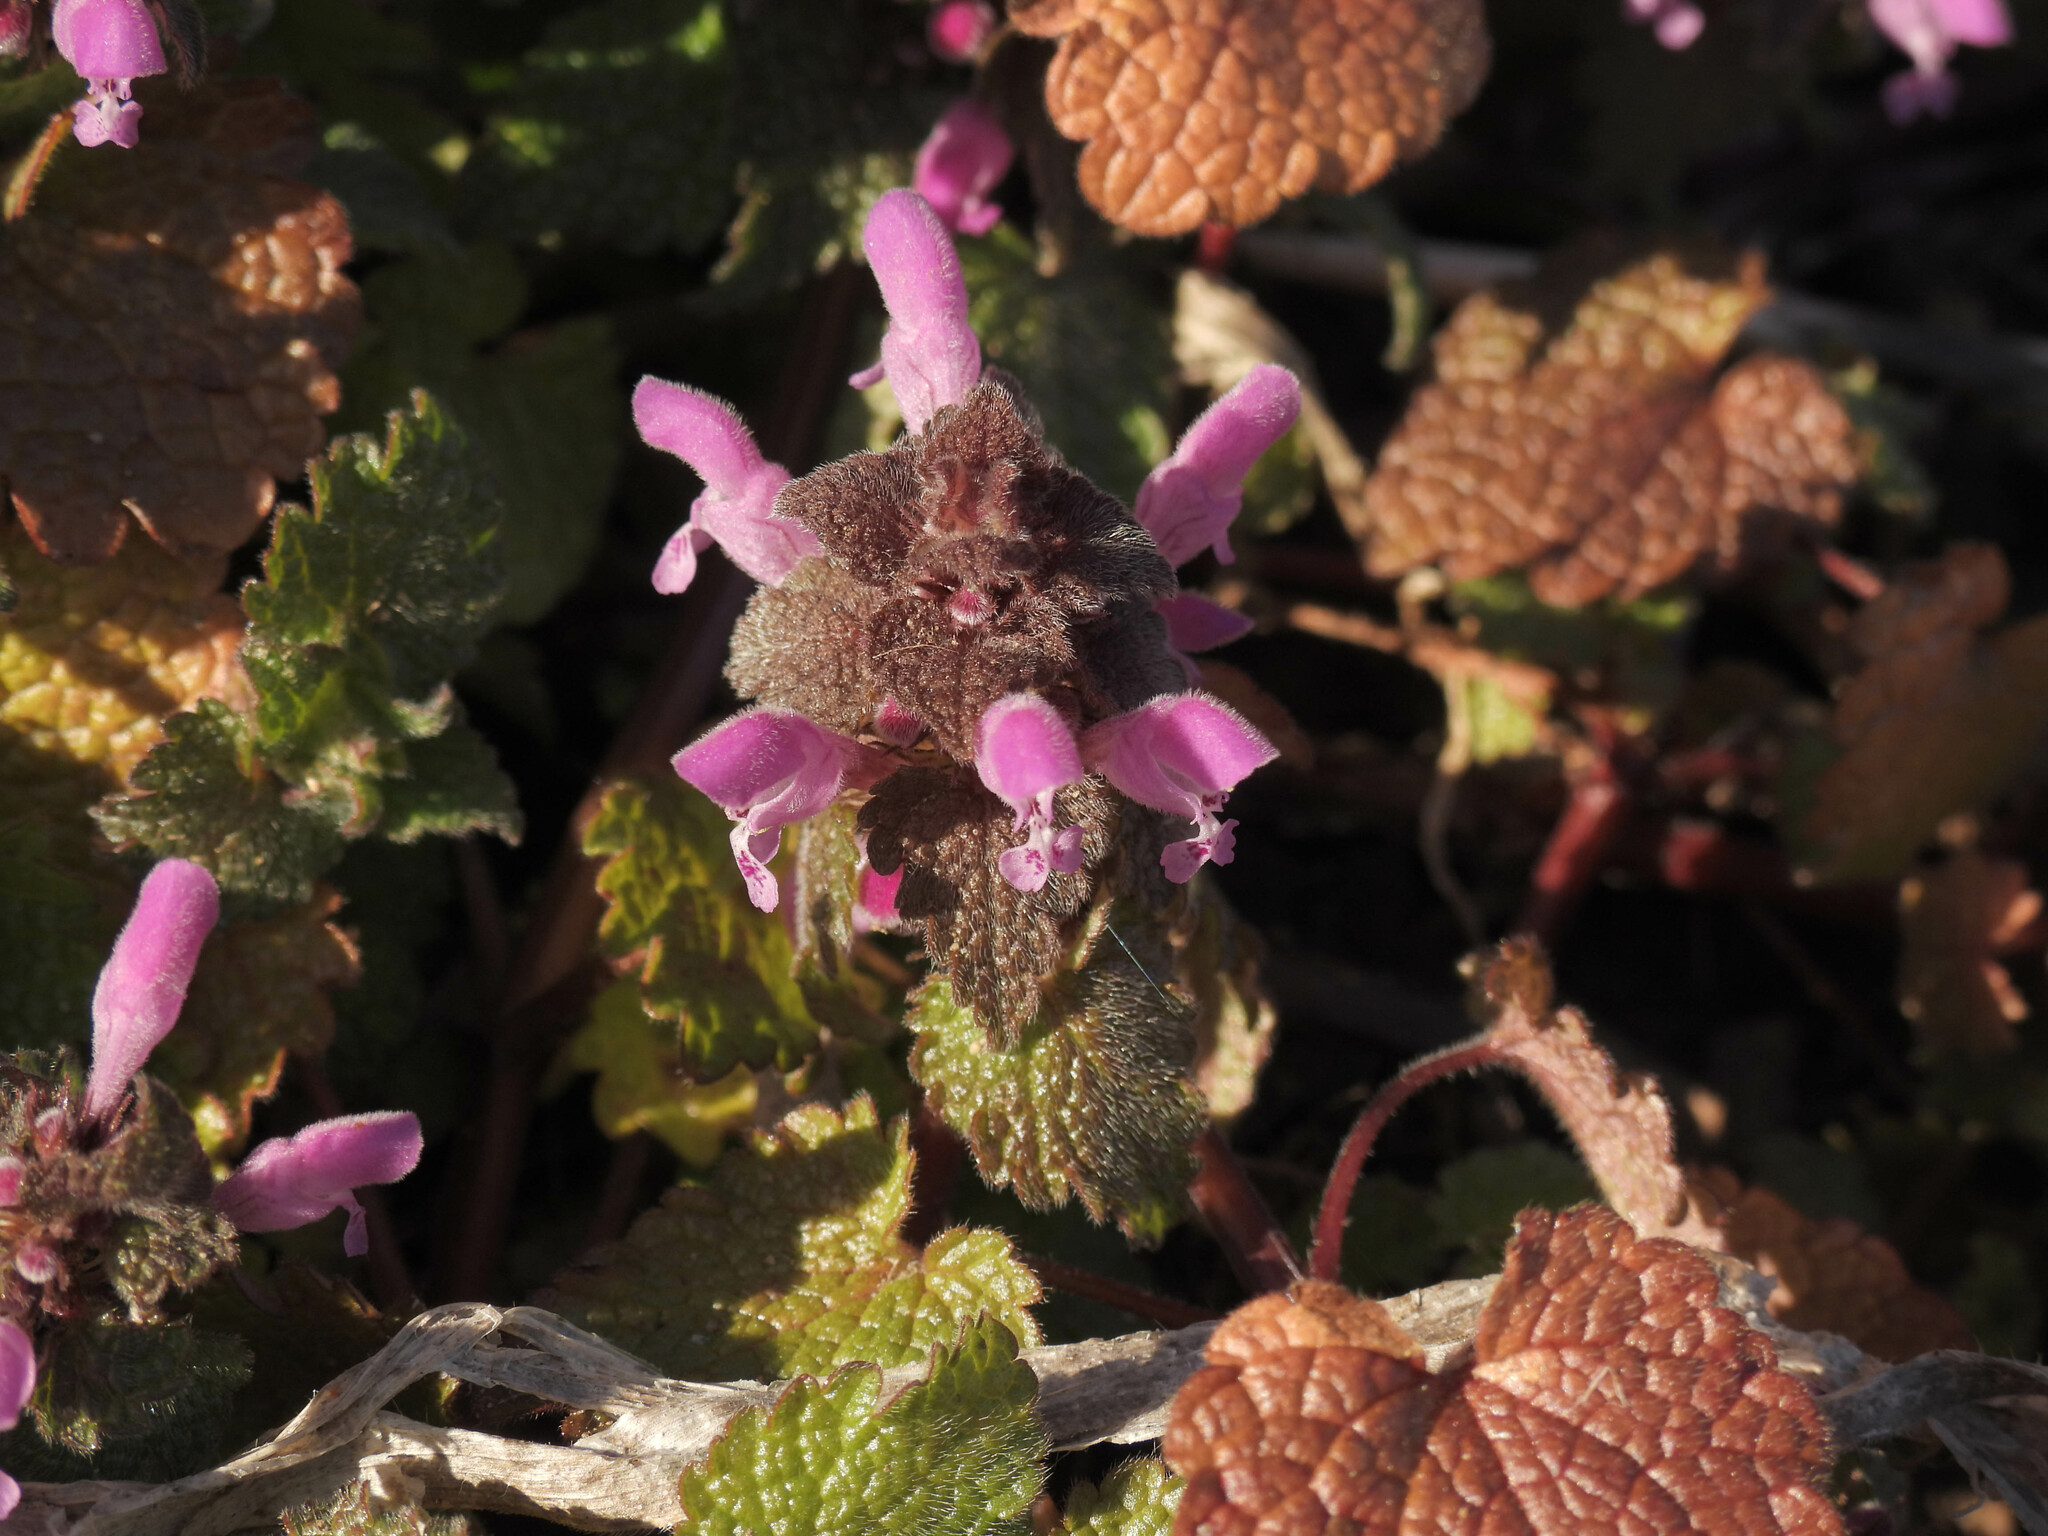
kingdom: Plantae
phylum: Tracheophyta
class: Magnoliopsida
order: Lamiales
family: Lamiaceae
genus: Lamium
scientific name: Lamium purpureum
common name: Red dead-nettle
